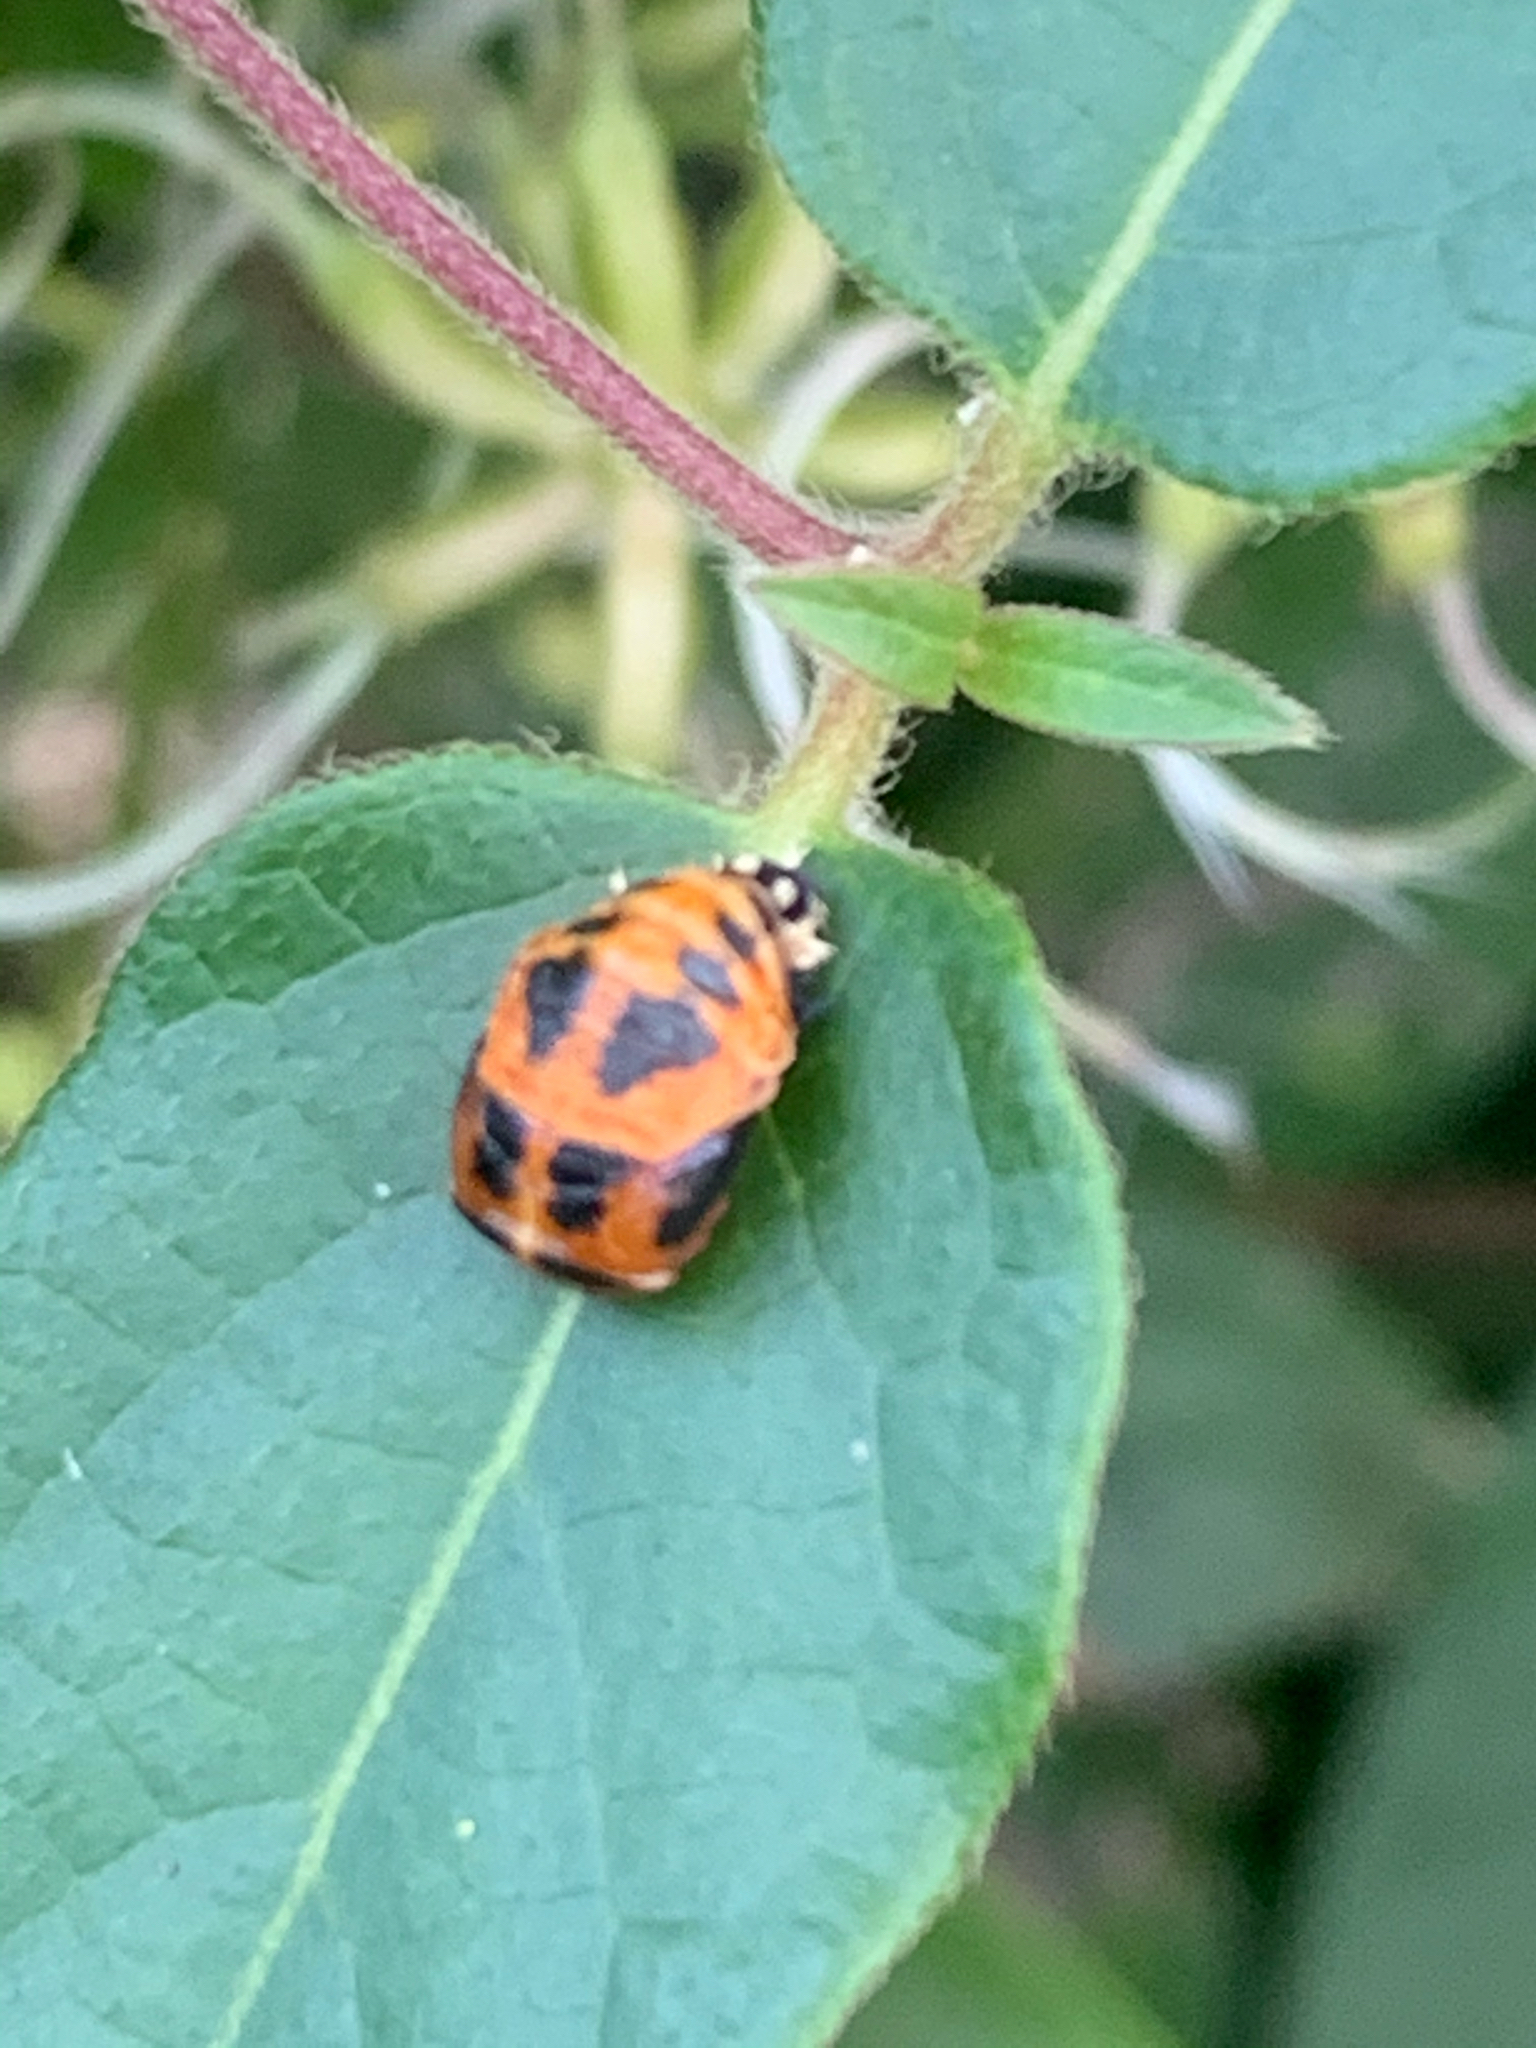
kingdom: Animalia
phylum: Arthropoda
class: Insecta
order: Coleoptera
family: Coccinellidae
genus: Harmonia
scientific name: Harmonia axyridis
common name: Harlequin ladybird
